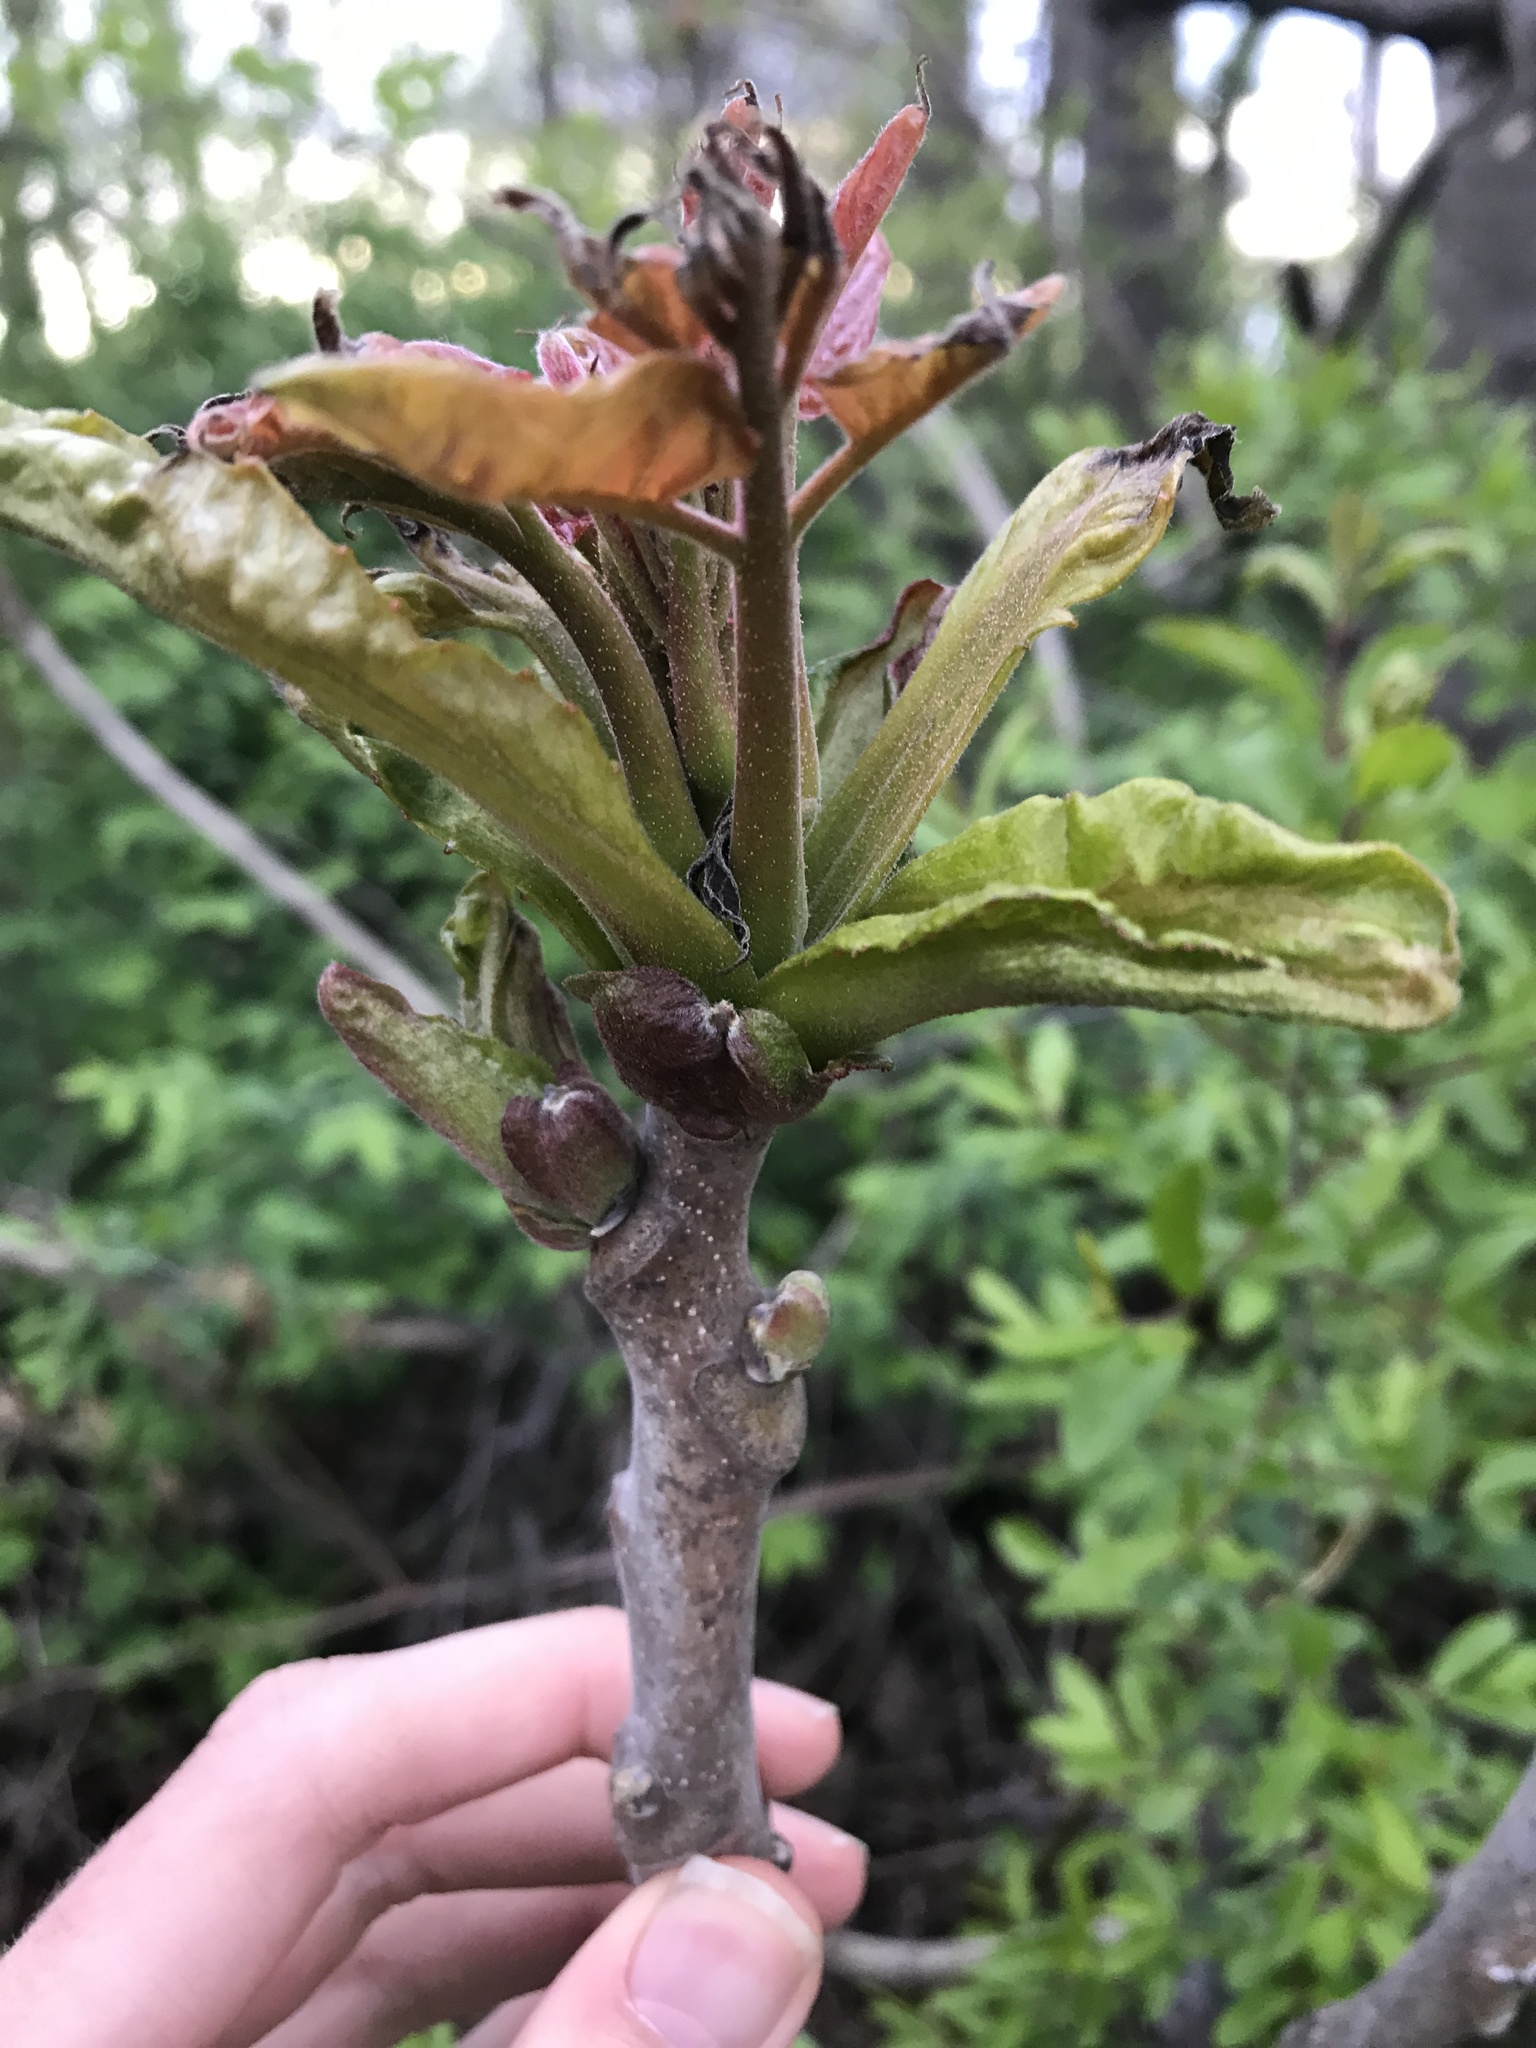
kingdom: Plantae
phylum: Tracheophyta
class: Magnoliopsida
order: Sapindales
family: Simaroubaceae
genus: Ailanthus
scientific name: Ailanthus altissima
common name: Tree-of-heaven
